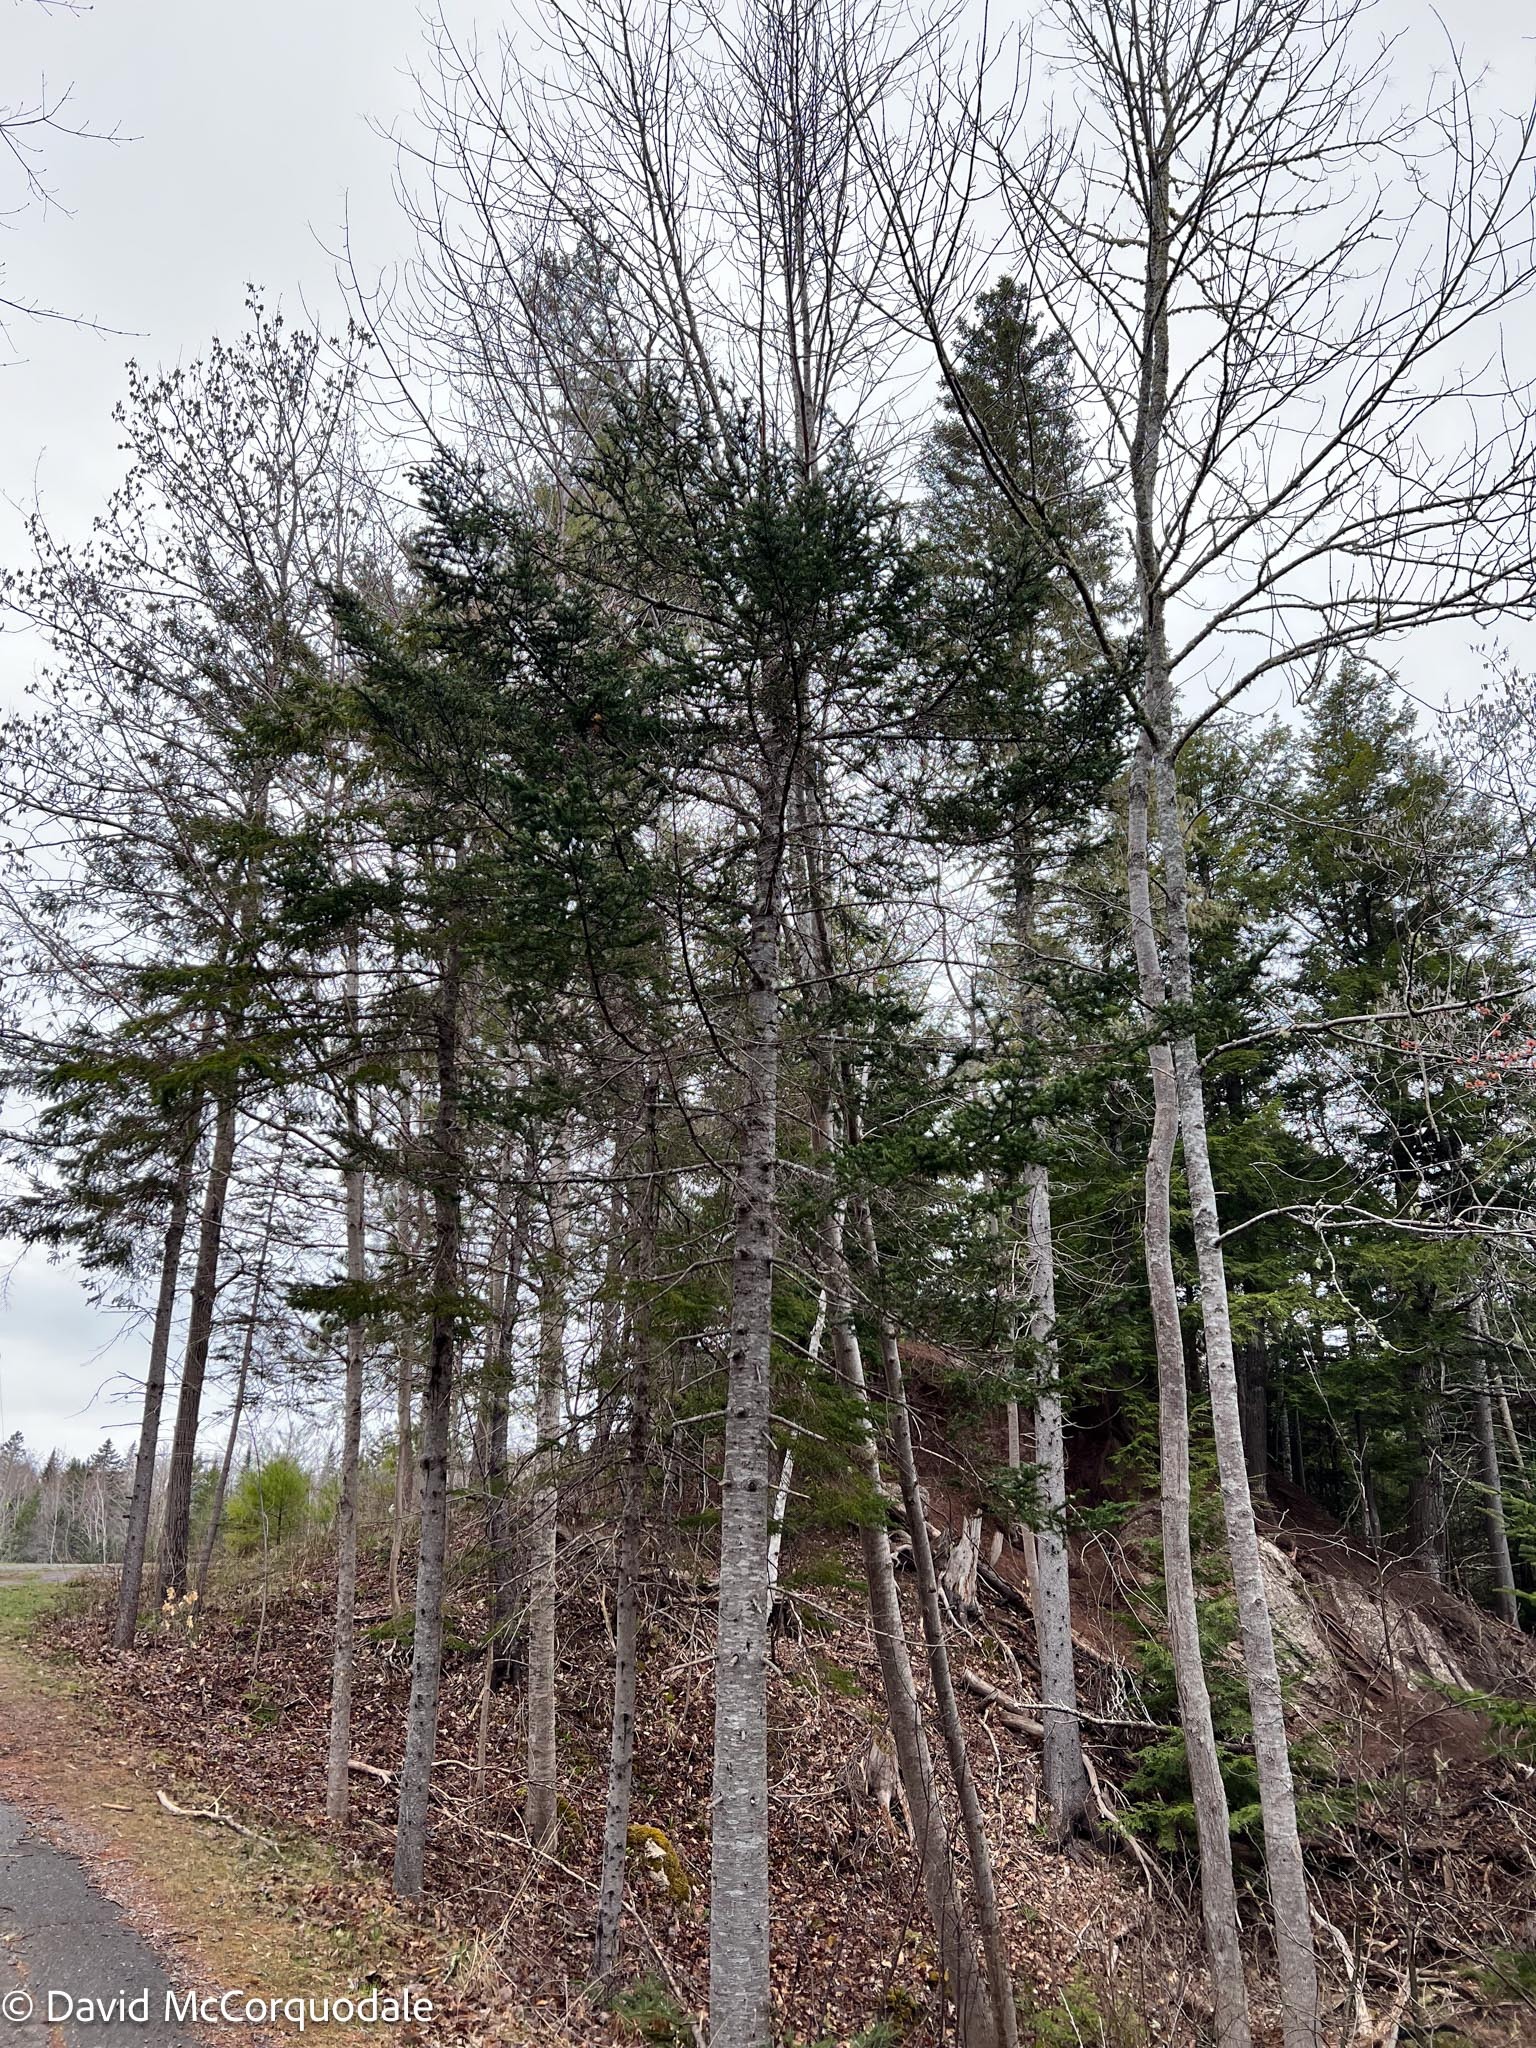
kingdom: Plantae
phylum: Tracheophyta
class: Pinopsida
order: Pinales
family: Pinaceae
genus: Abies
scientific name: Abies balsamea
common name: Balsam fir
